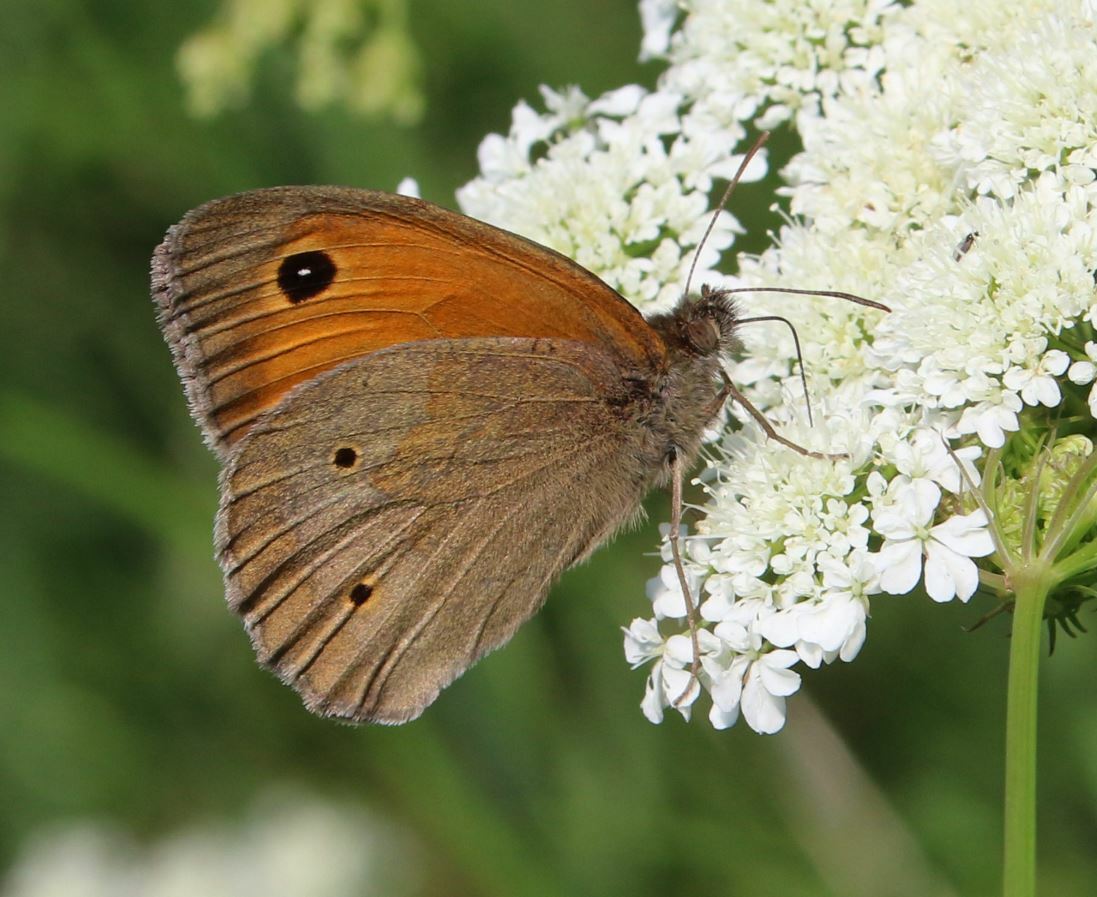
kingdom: Animalia
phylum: Arthropoda
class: Insecta
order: Lepidoptera
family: Nymphalidae
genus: Maniola
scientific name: Maniola jurtina
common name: Meadow brown
